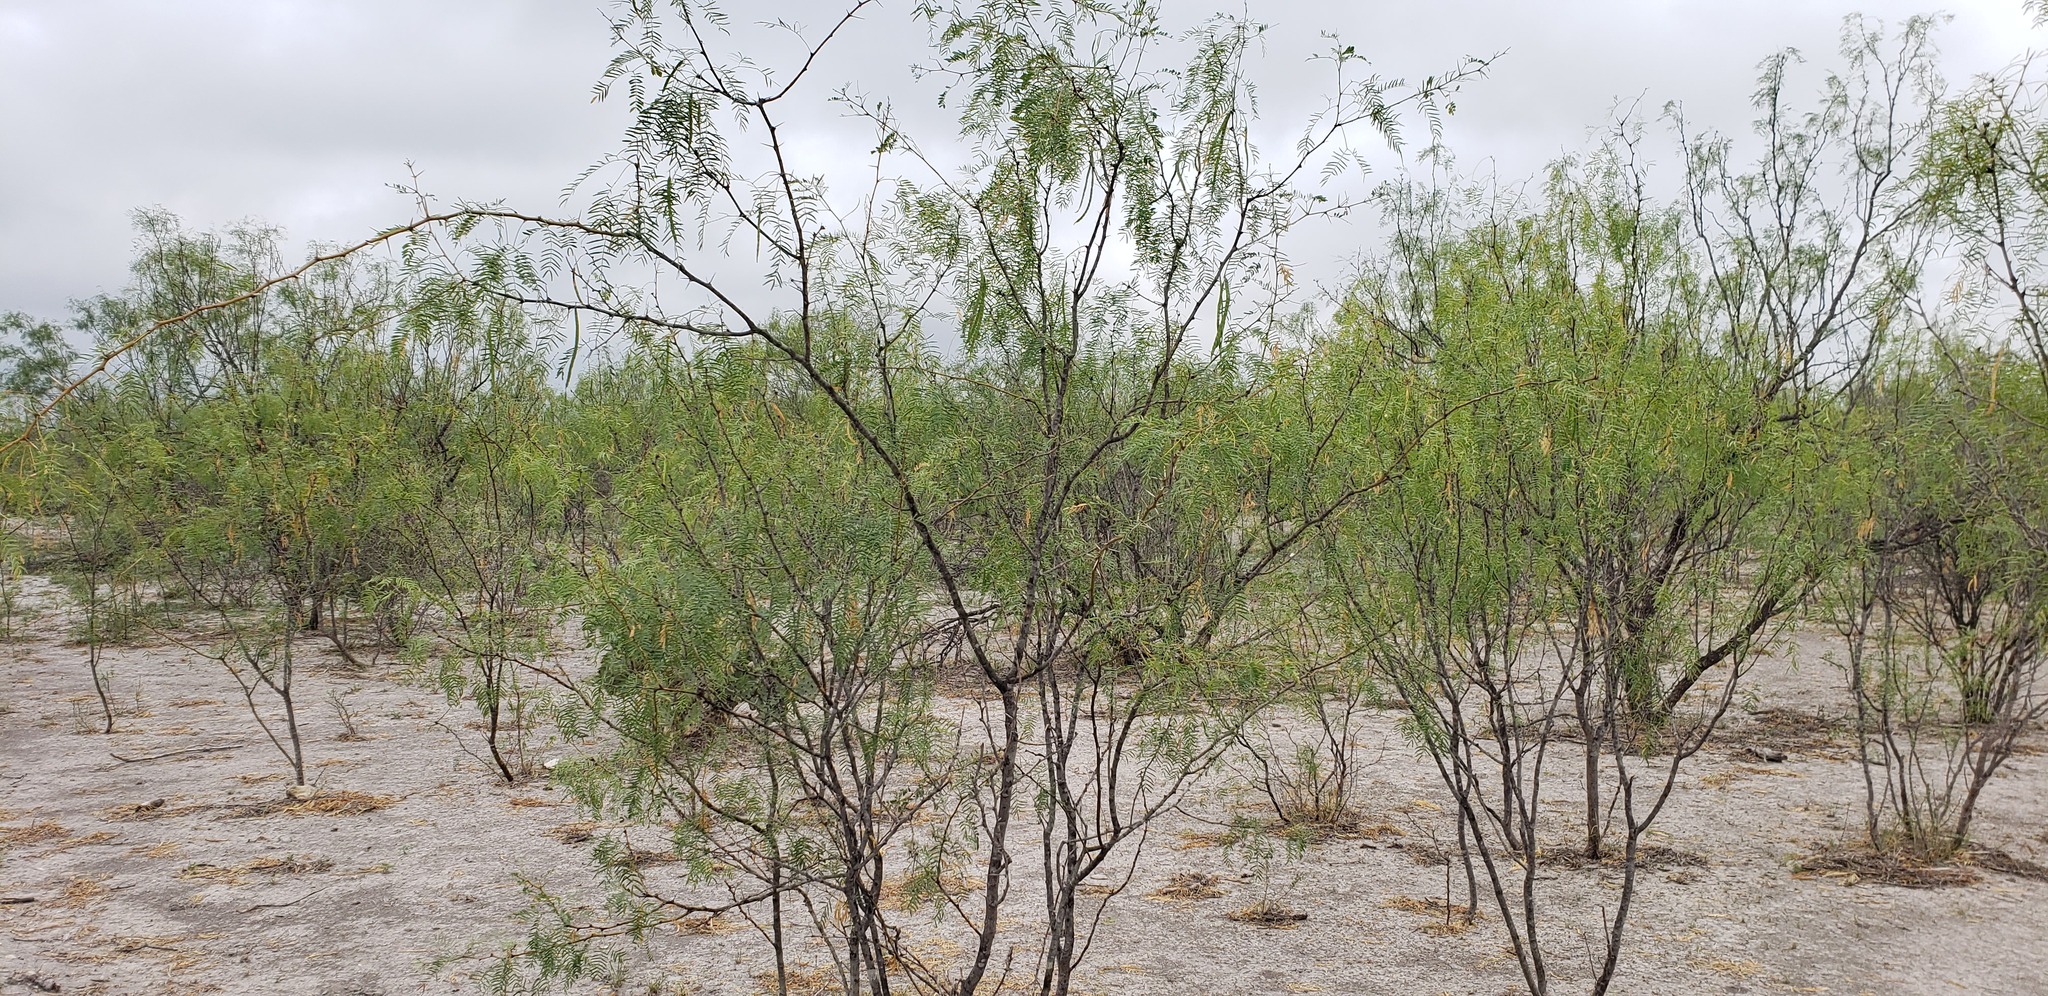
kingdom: Plantae
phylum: Tracheophyta
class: Magnoliopsida
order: Fabales
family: Fabaceae
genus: Prosopis
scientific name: Prosopis glandulosa
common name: Honey mesquite
